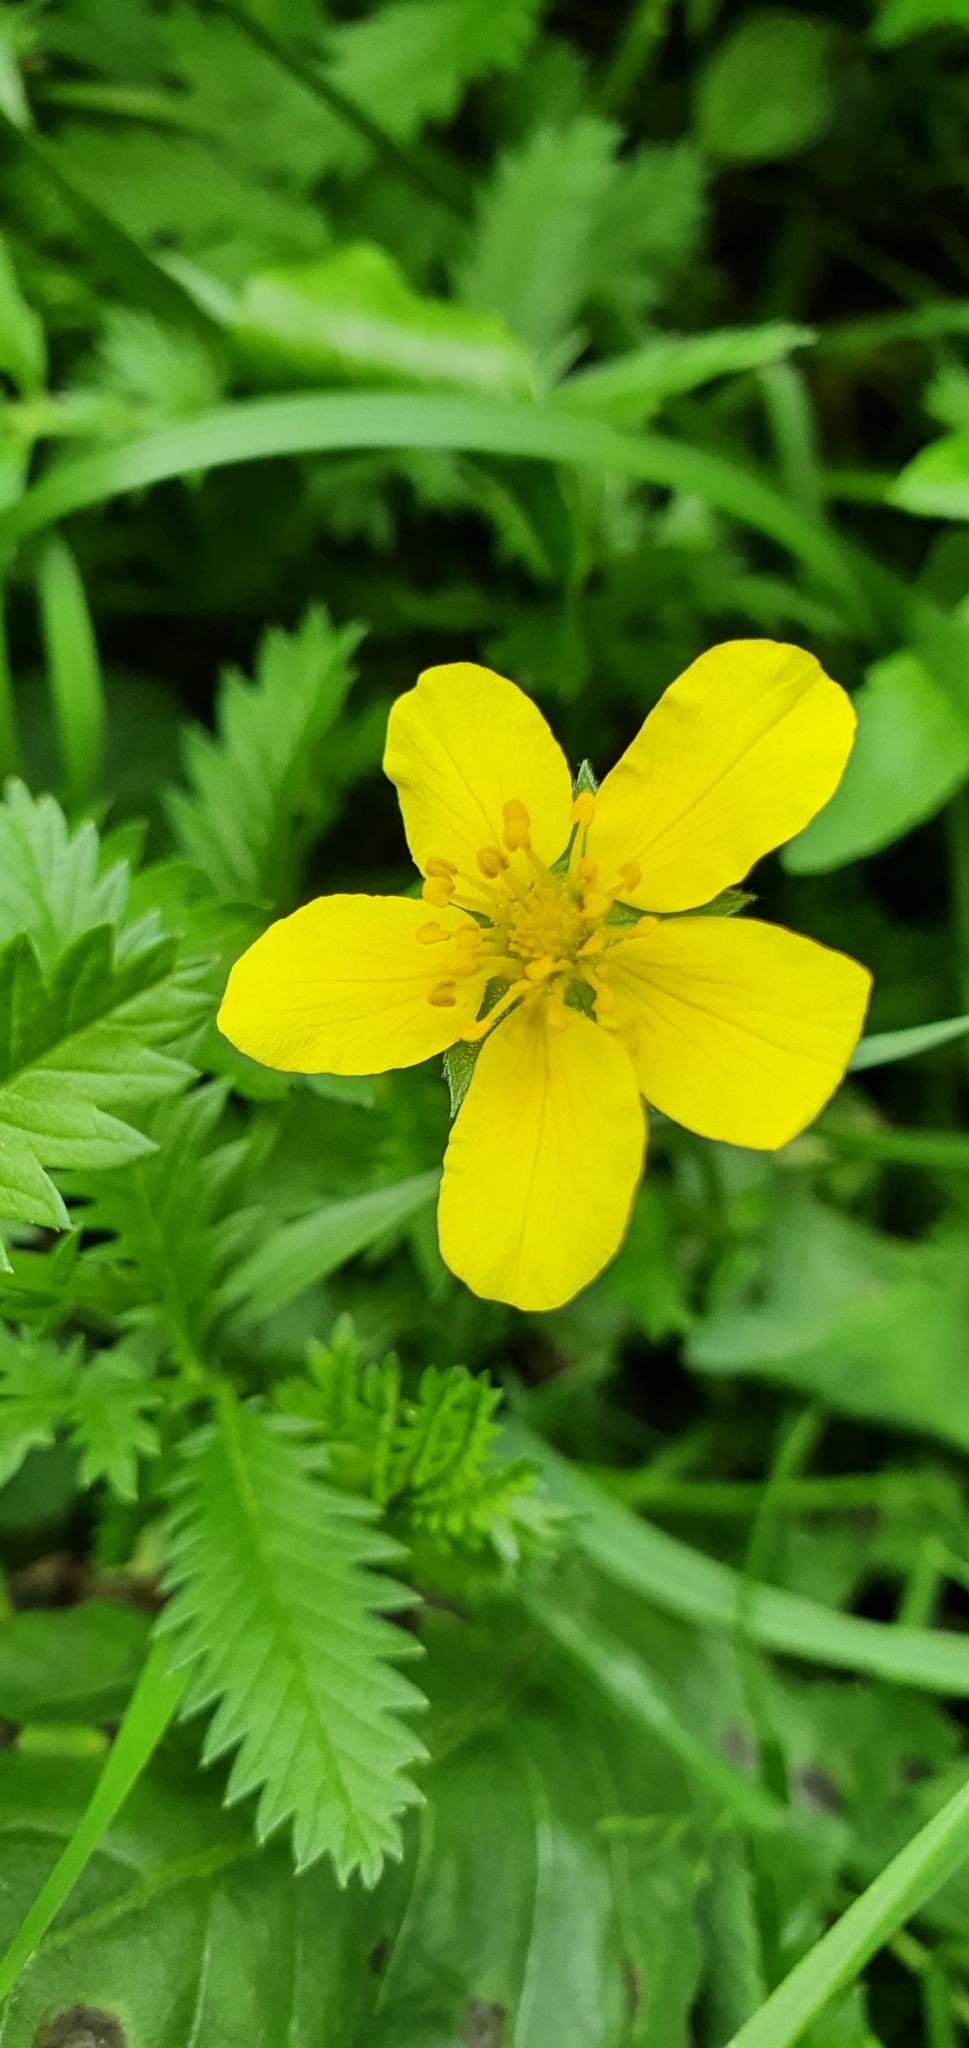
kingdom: Plantae
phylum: Tracheophyta
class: Magnoliopsida
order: Rosales
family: Rosaceae
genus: Argentina
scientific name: Argentina anserina
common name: Common silverweed
